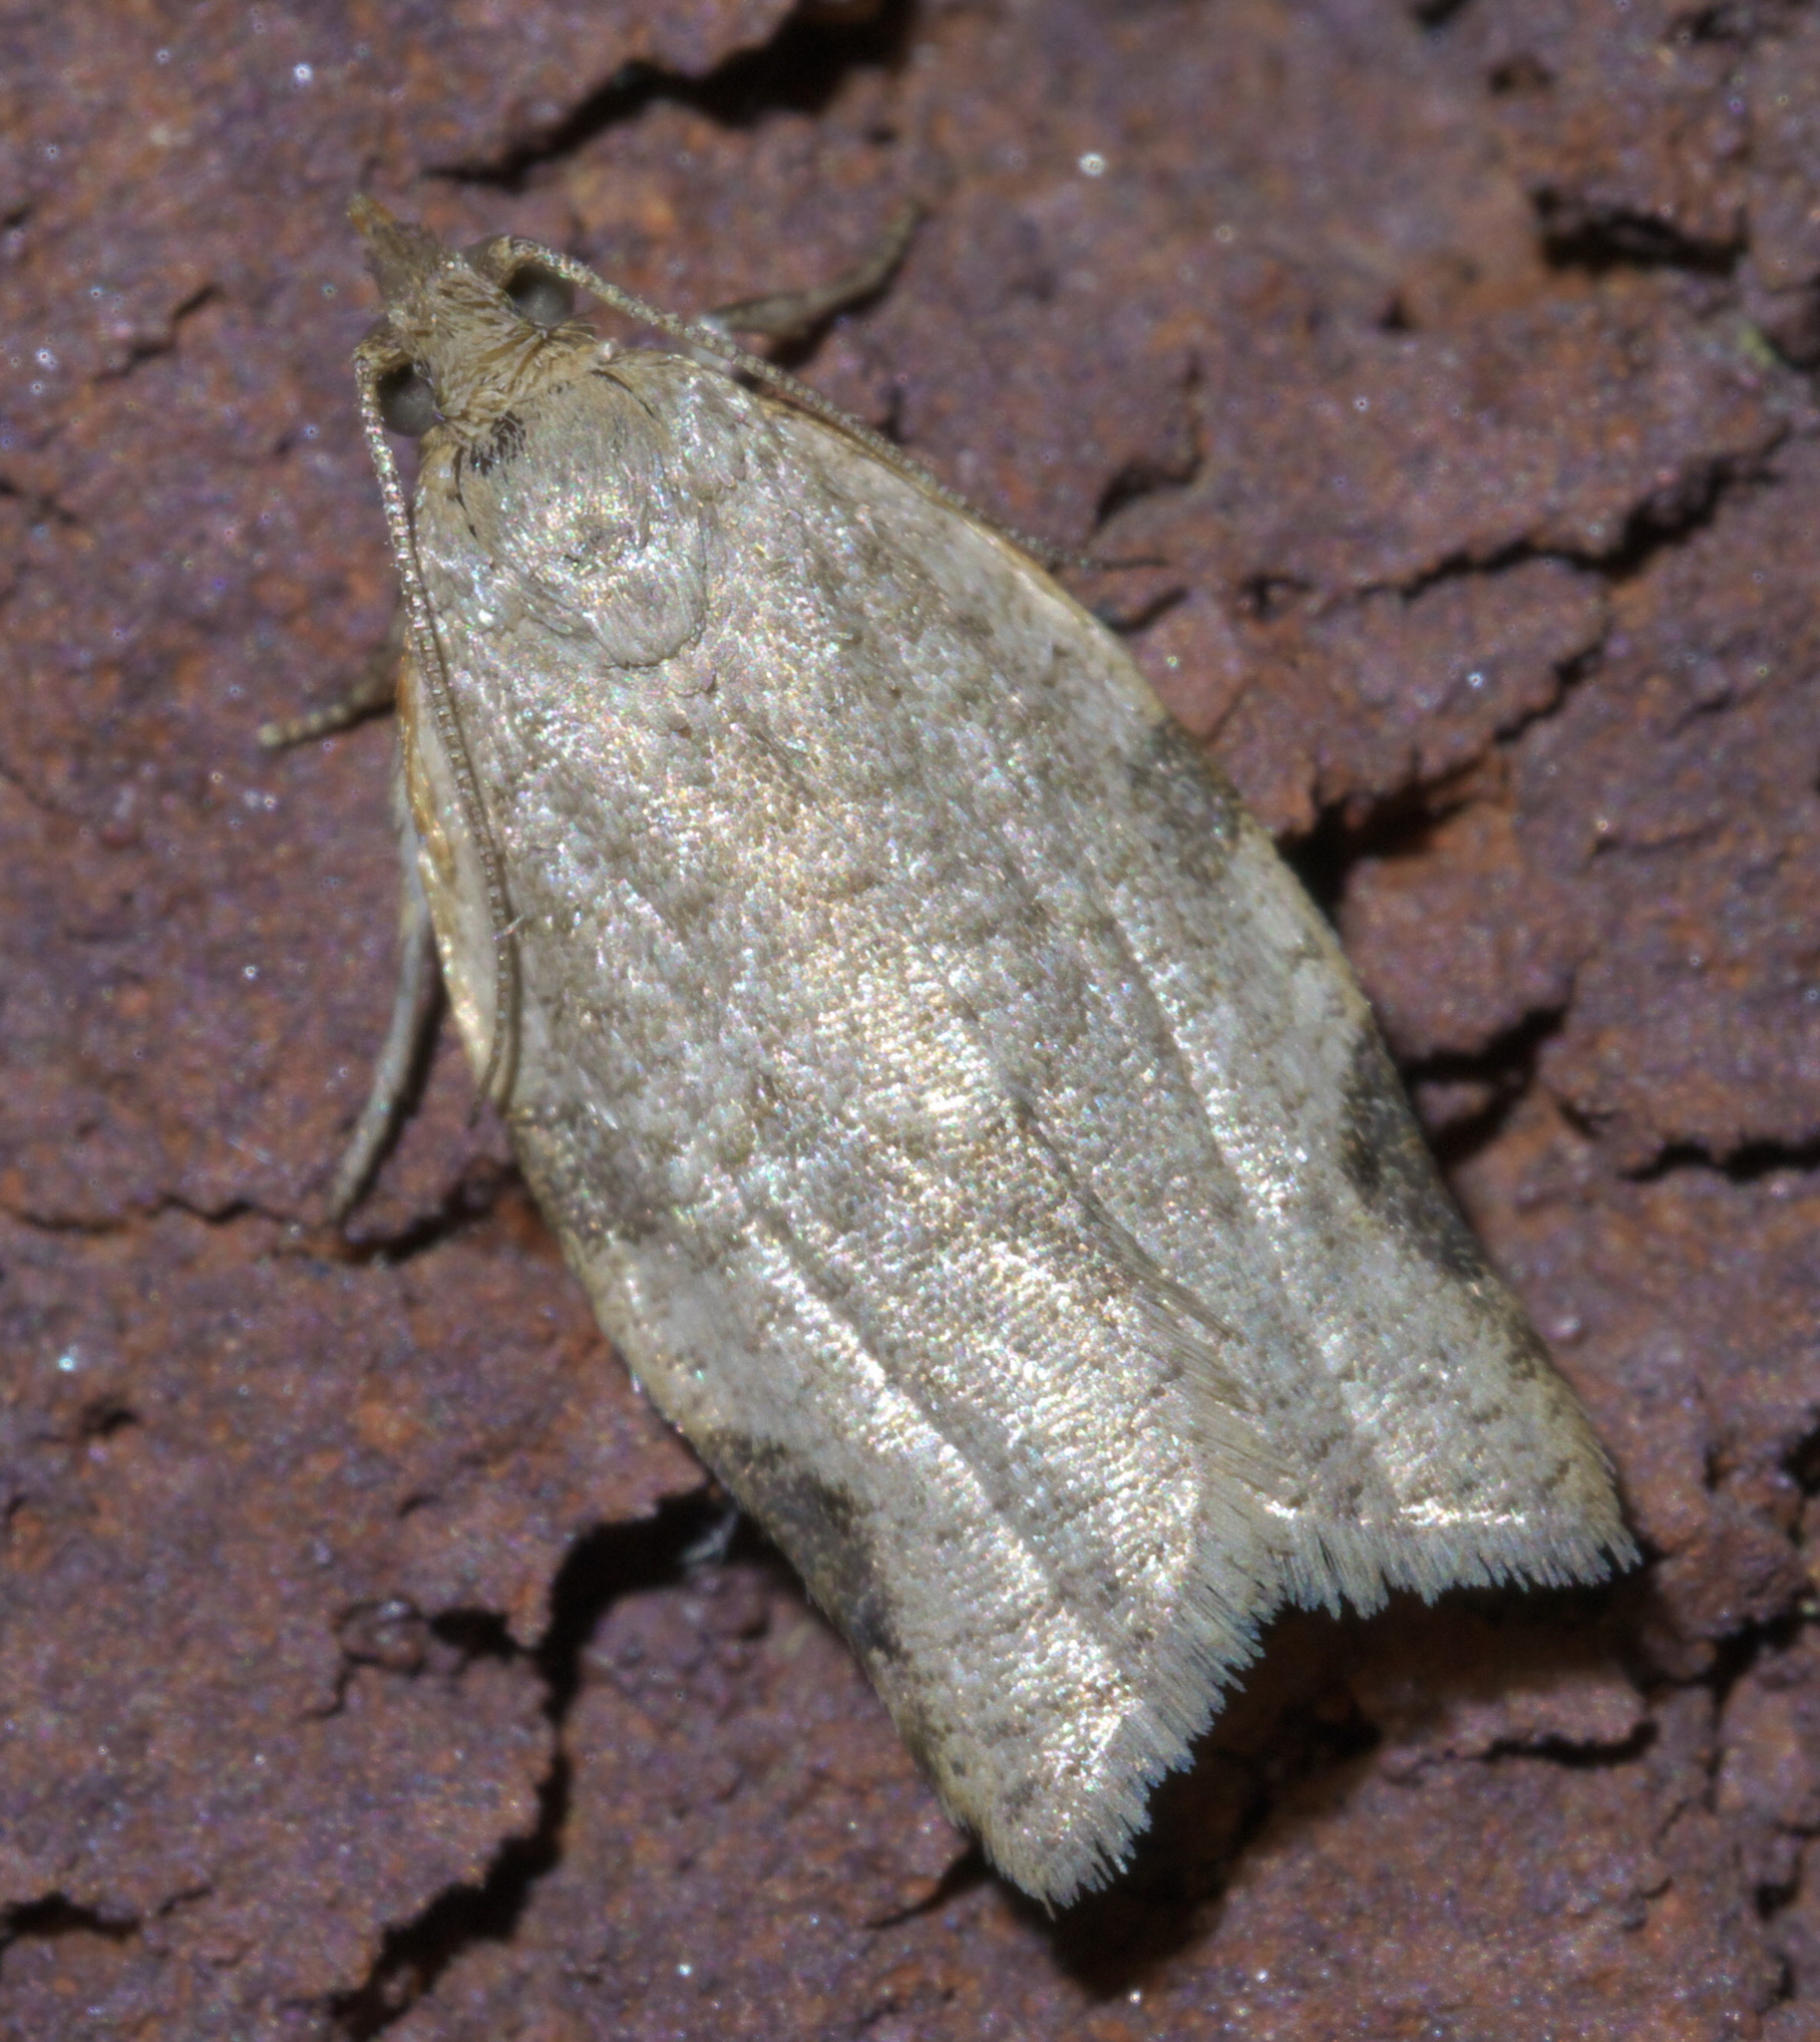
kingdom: Animalia
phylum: Arthropoda
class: Insecta
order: Lepidoptera
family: Tortricidae
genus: Clepsis
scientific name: Clepsis virescana
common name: Greenish apple moth
